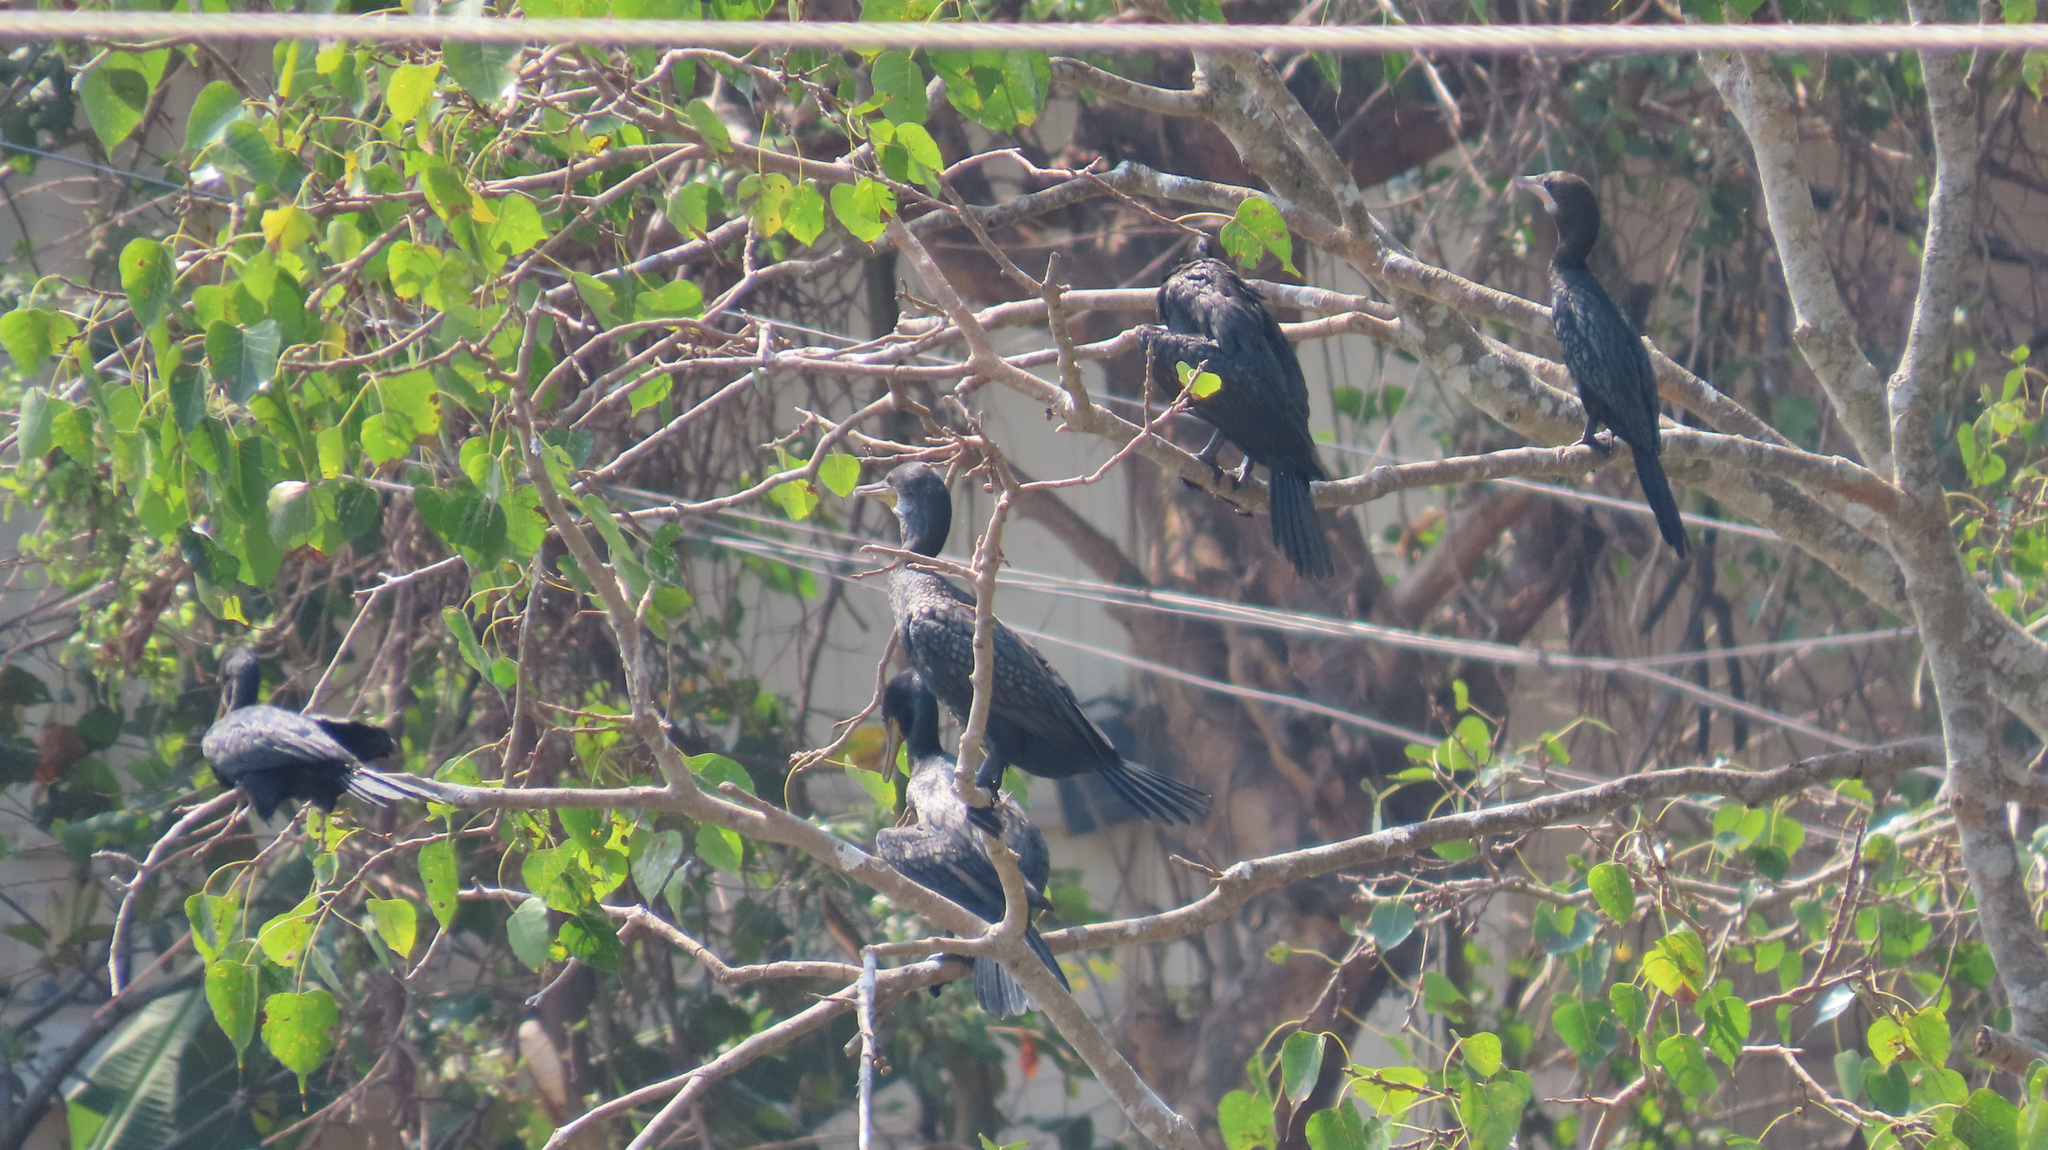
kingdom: Animalia
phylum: Chordata
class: Aves
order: Suliformes
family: Phalacrocoracidae
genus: Phalacrocorax
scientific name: Phalacrocorax fuscicollis
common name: Indian cormorant
